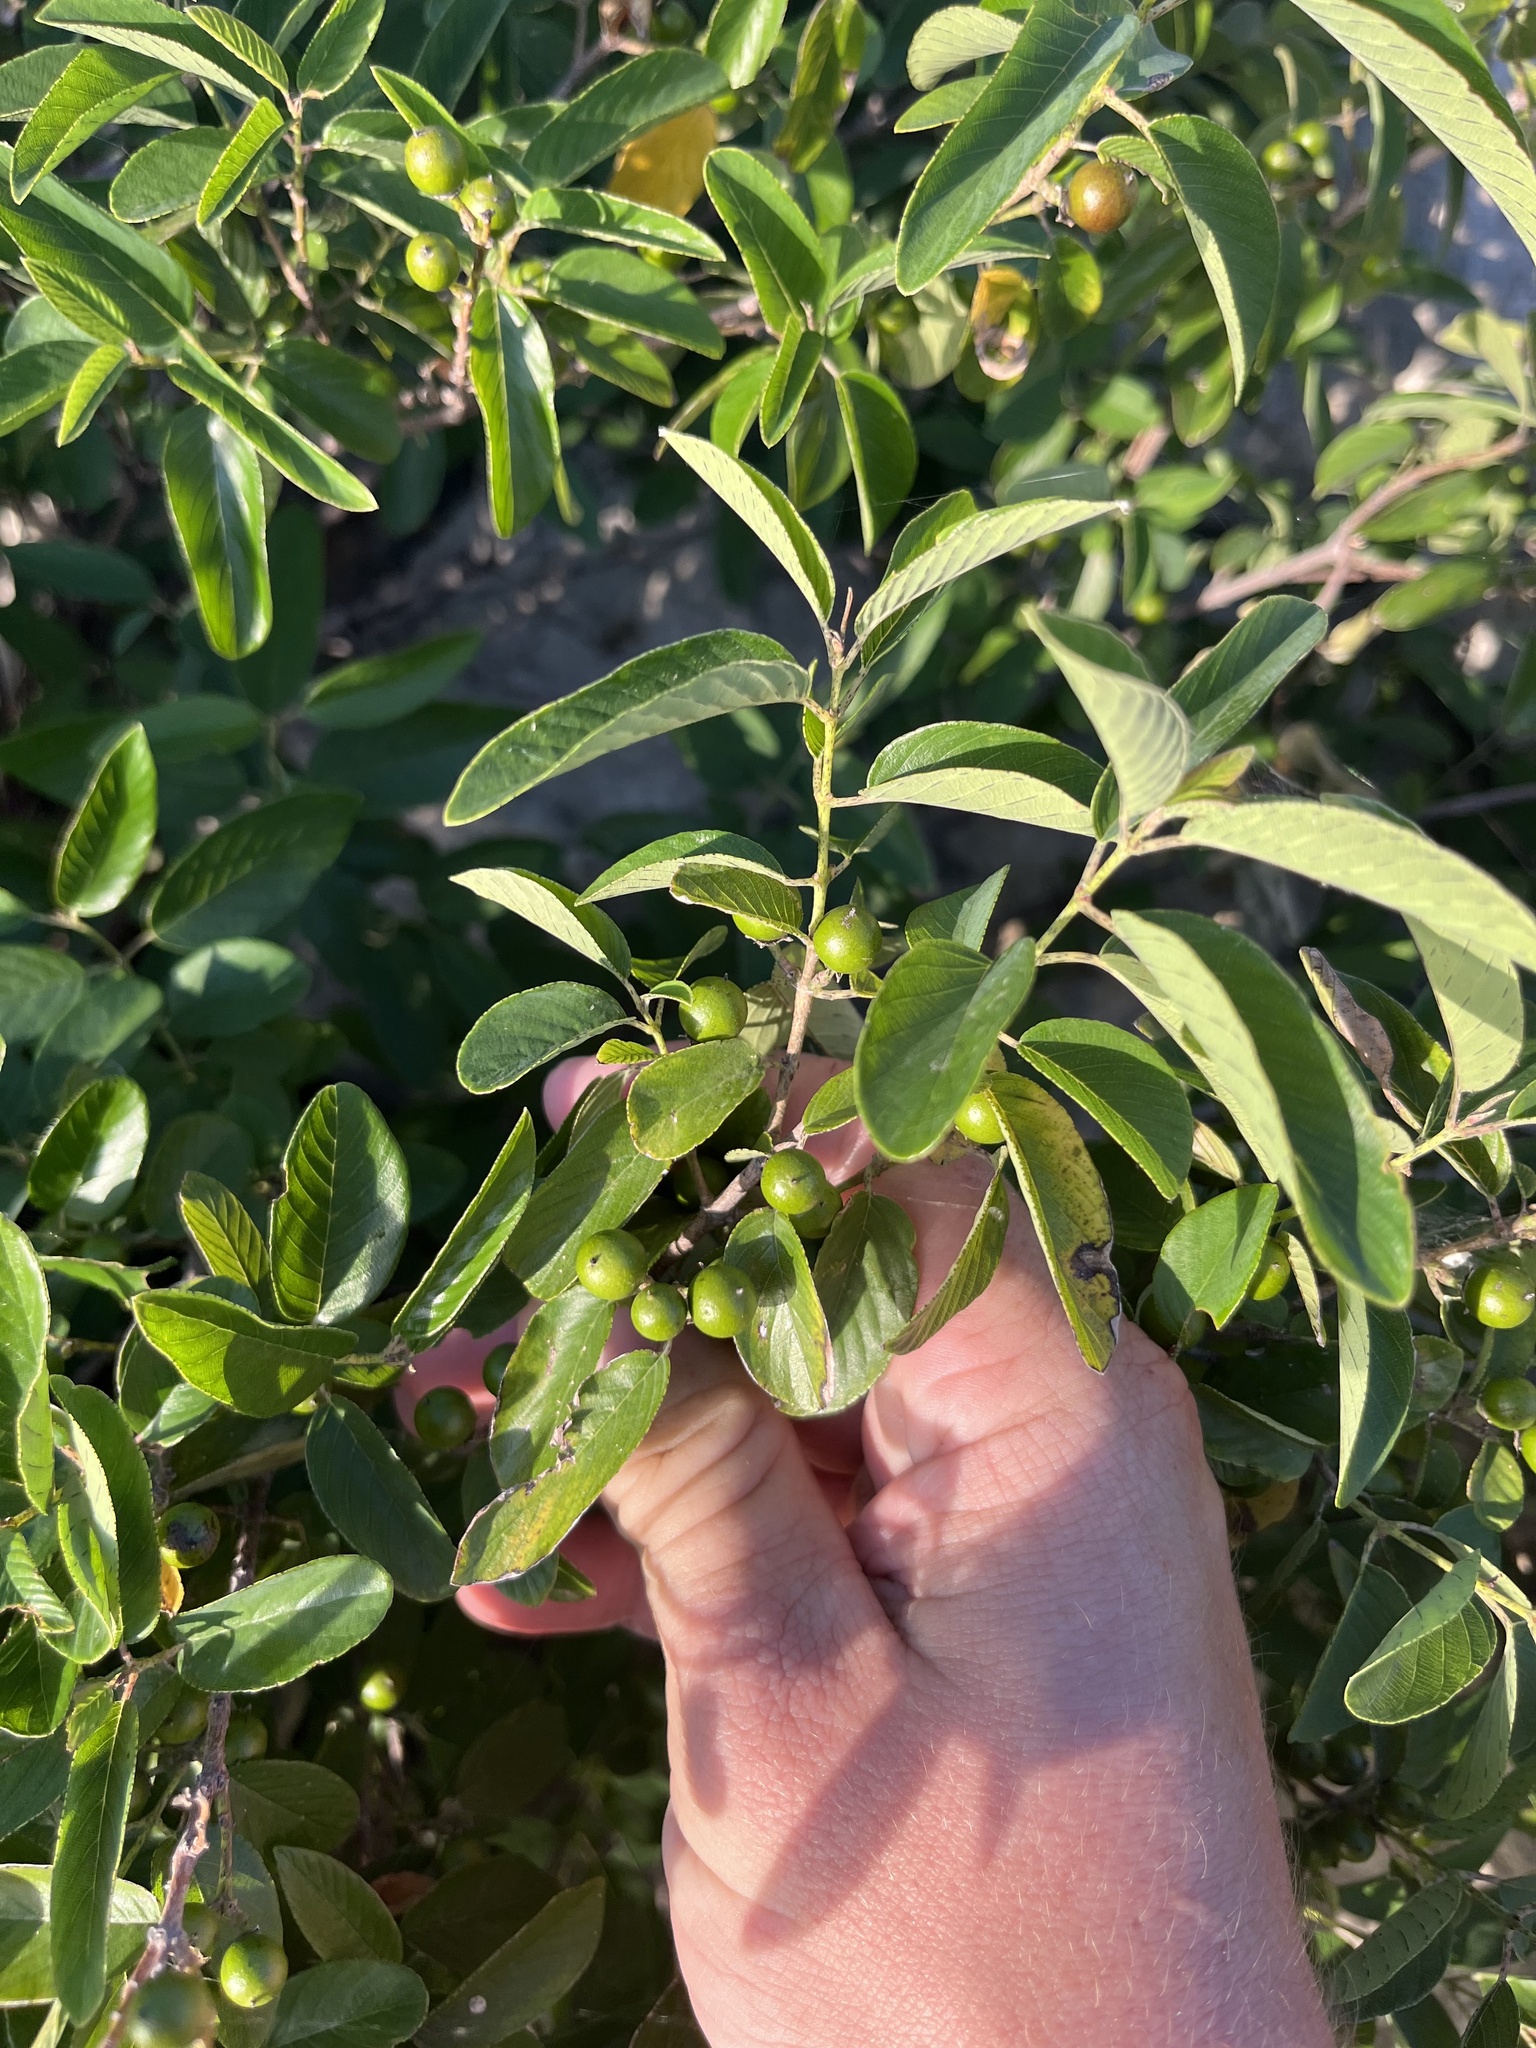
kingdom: Plantae
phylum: Tracheophyta
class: Magnoliopsida
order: Rosales
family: Rhamnaceae
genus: Karwinskia
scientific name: Karwinskia humboldtiana
